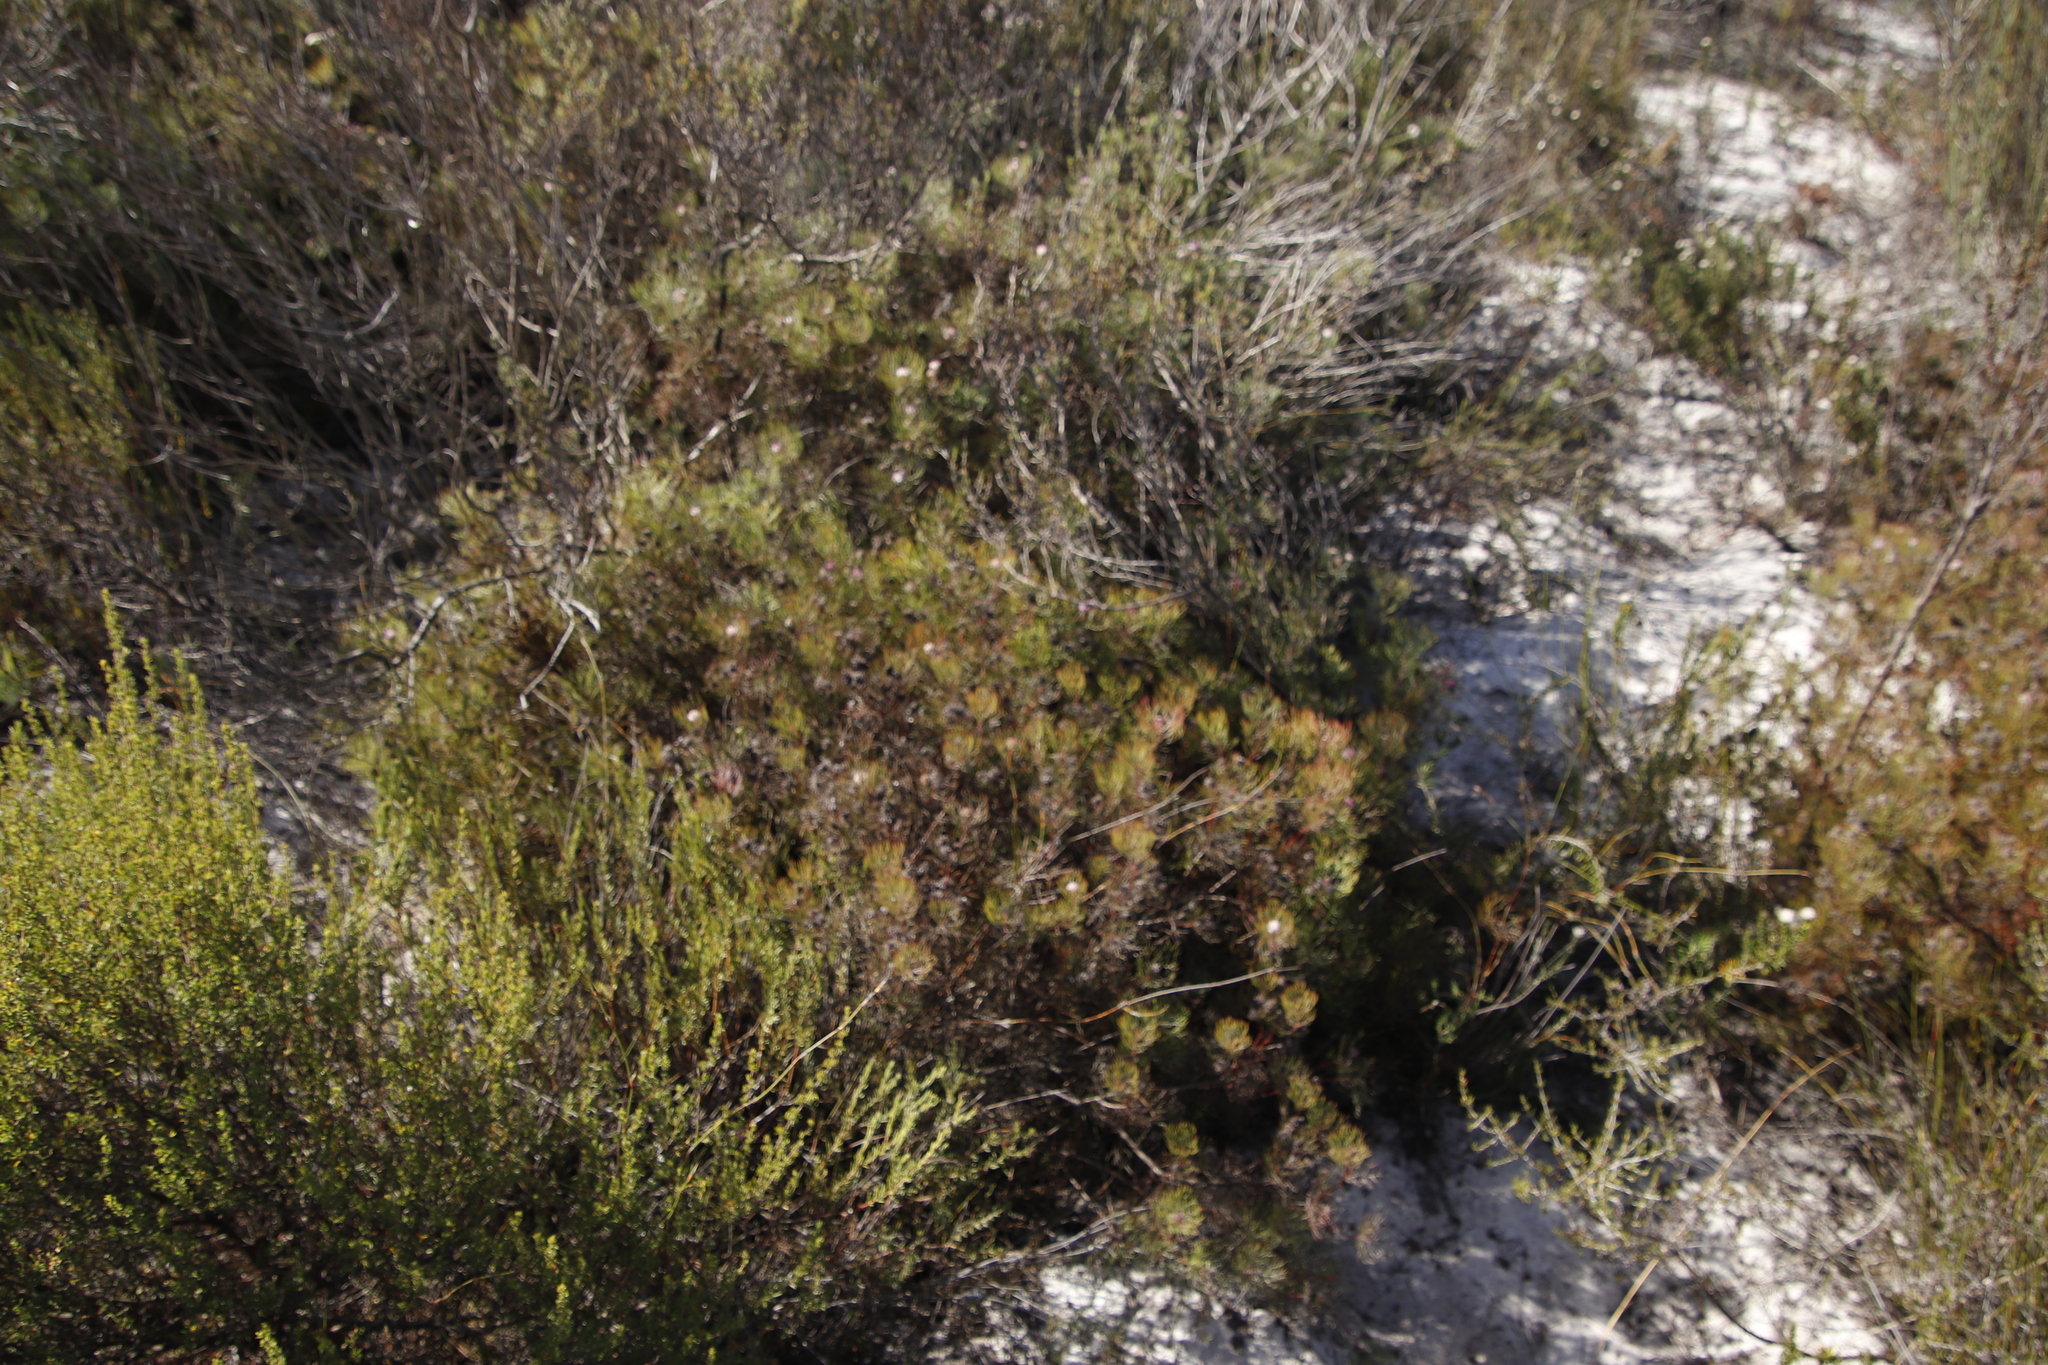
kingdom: Plantae
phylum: Tracheophyta
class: Magnoliopsida
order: Proteales
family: Proteaceae
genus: Serruria
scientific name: Serruria fasciflora
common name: Common pin spiderhead
